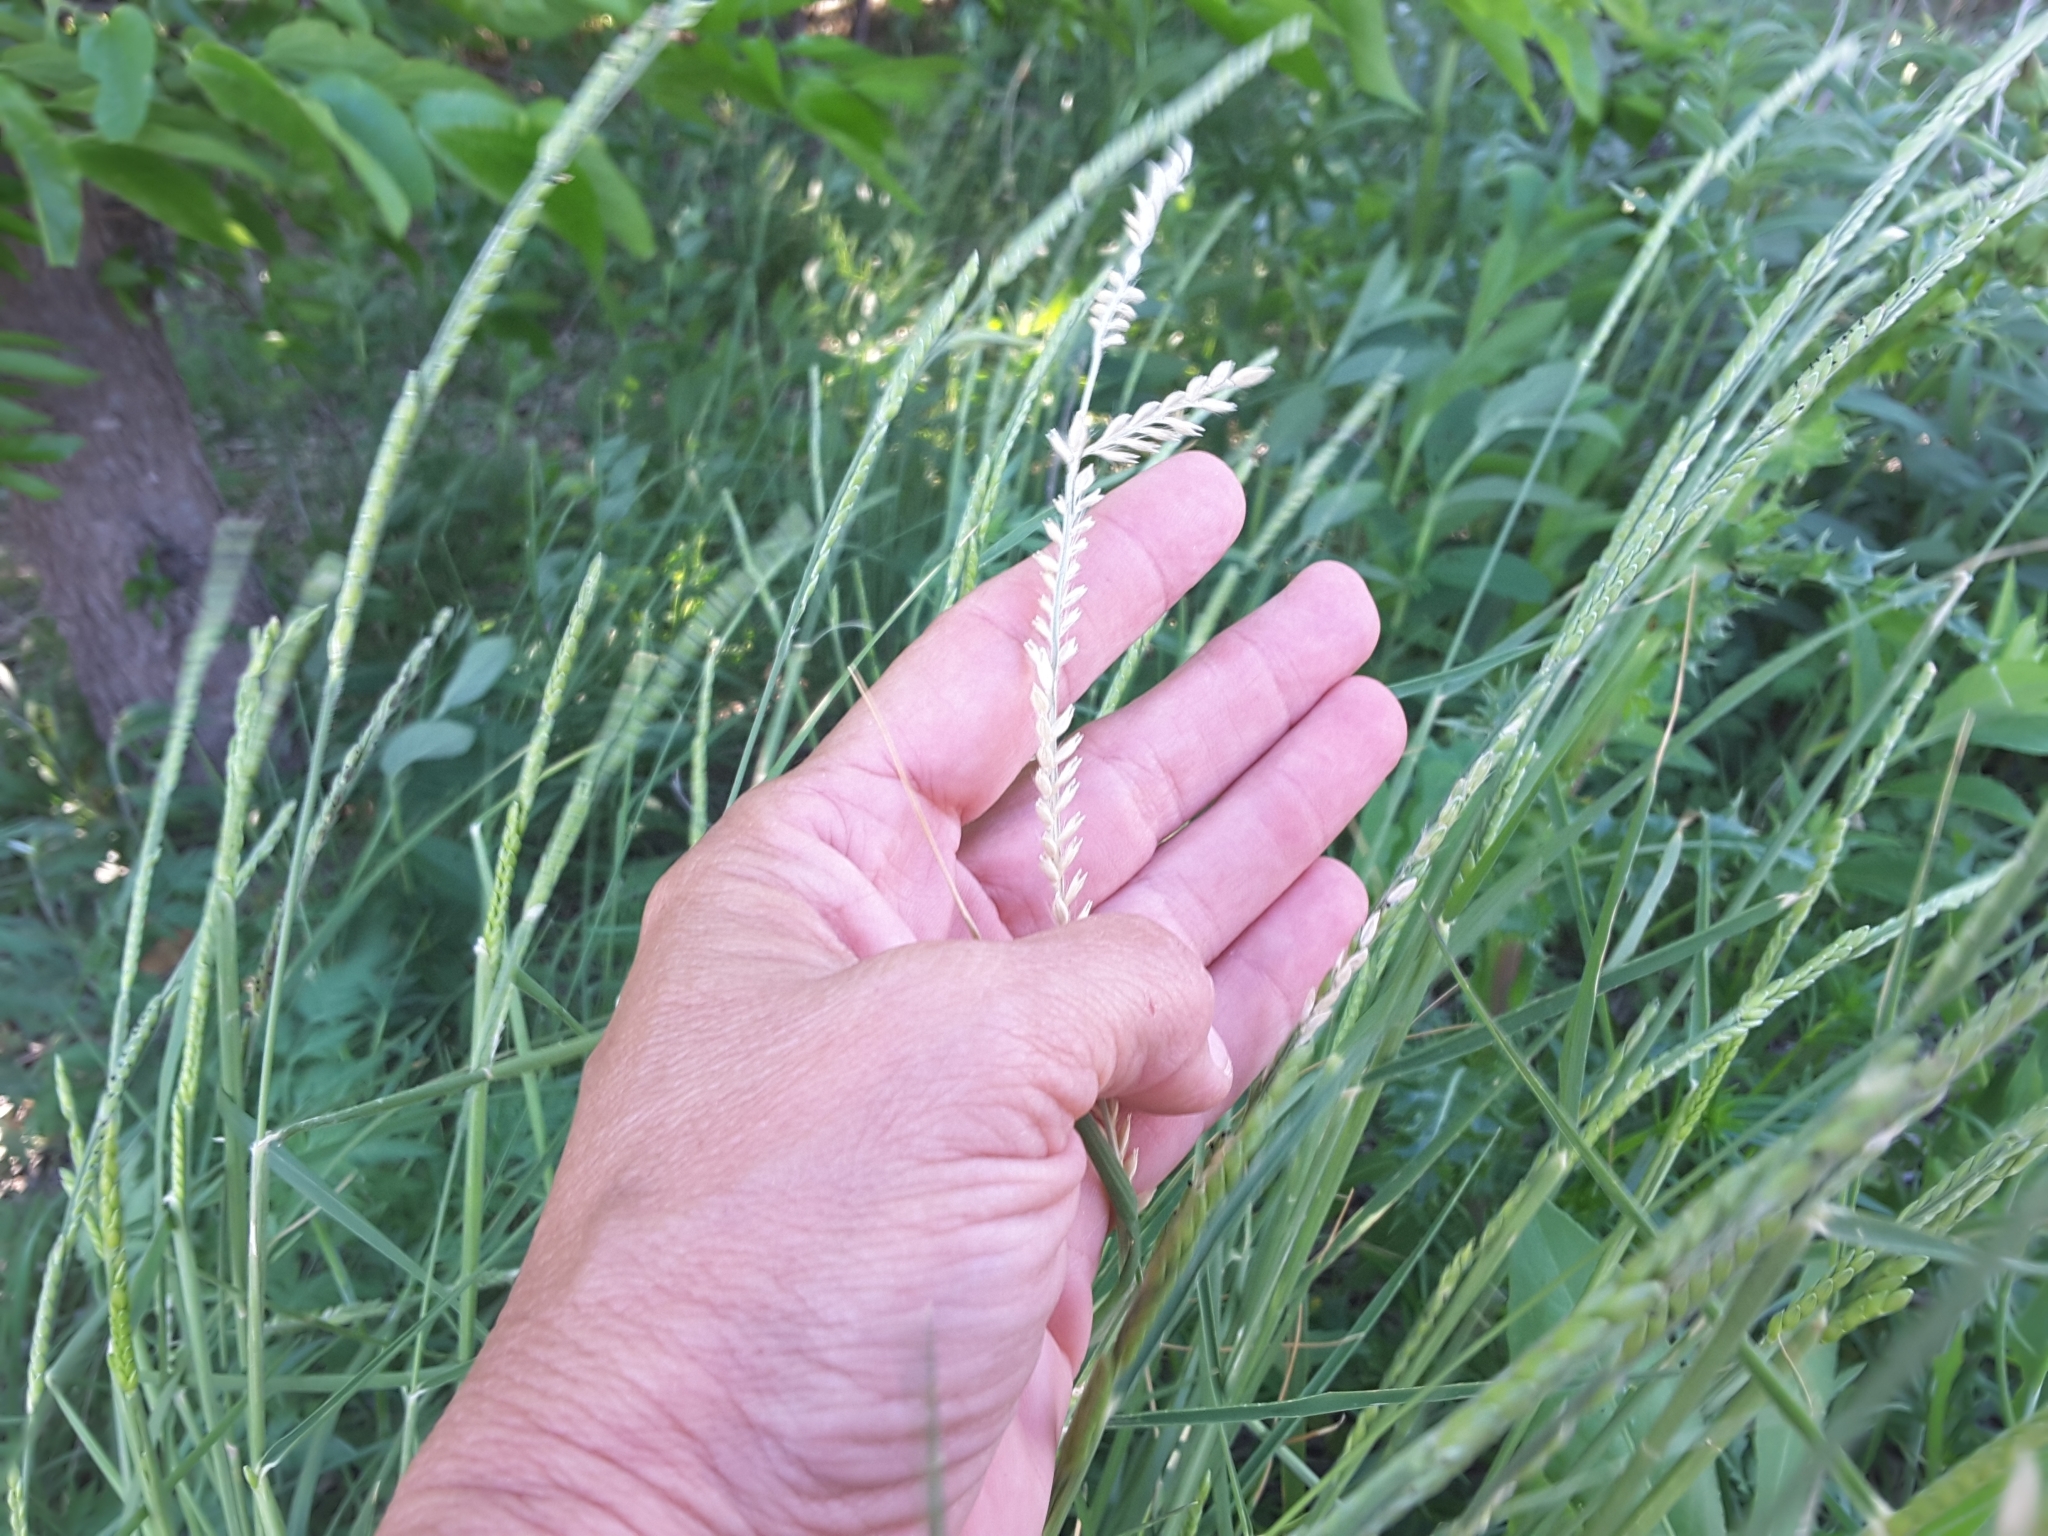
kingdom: Plantae
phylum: Tracheophyta
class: Liliopsida
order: Poales
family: Poaceae
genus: Eriochloa
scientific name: Eriochloa sericea
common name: Texas cup grass
